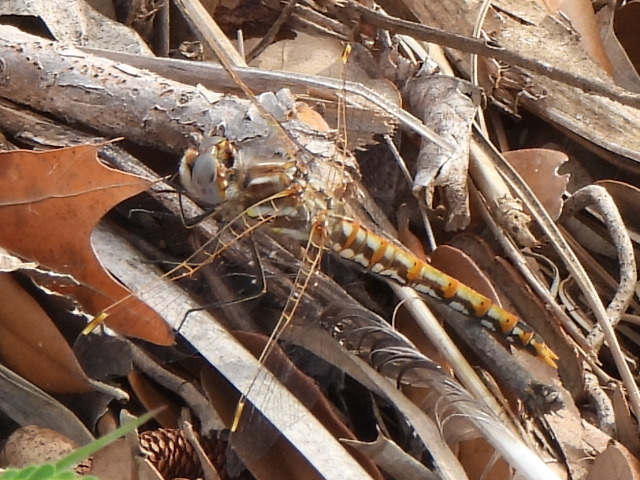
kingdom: Animalia
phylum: Arthropoda
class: Insecta
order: Odonata
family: Libellulidae
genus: Sympetrum
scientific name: Sympetrum corruptum
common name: Variegated meadowhawk
